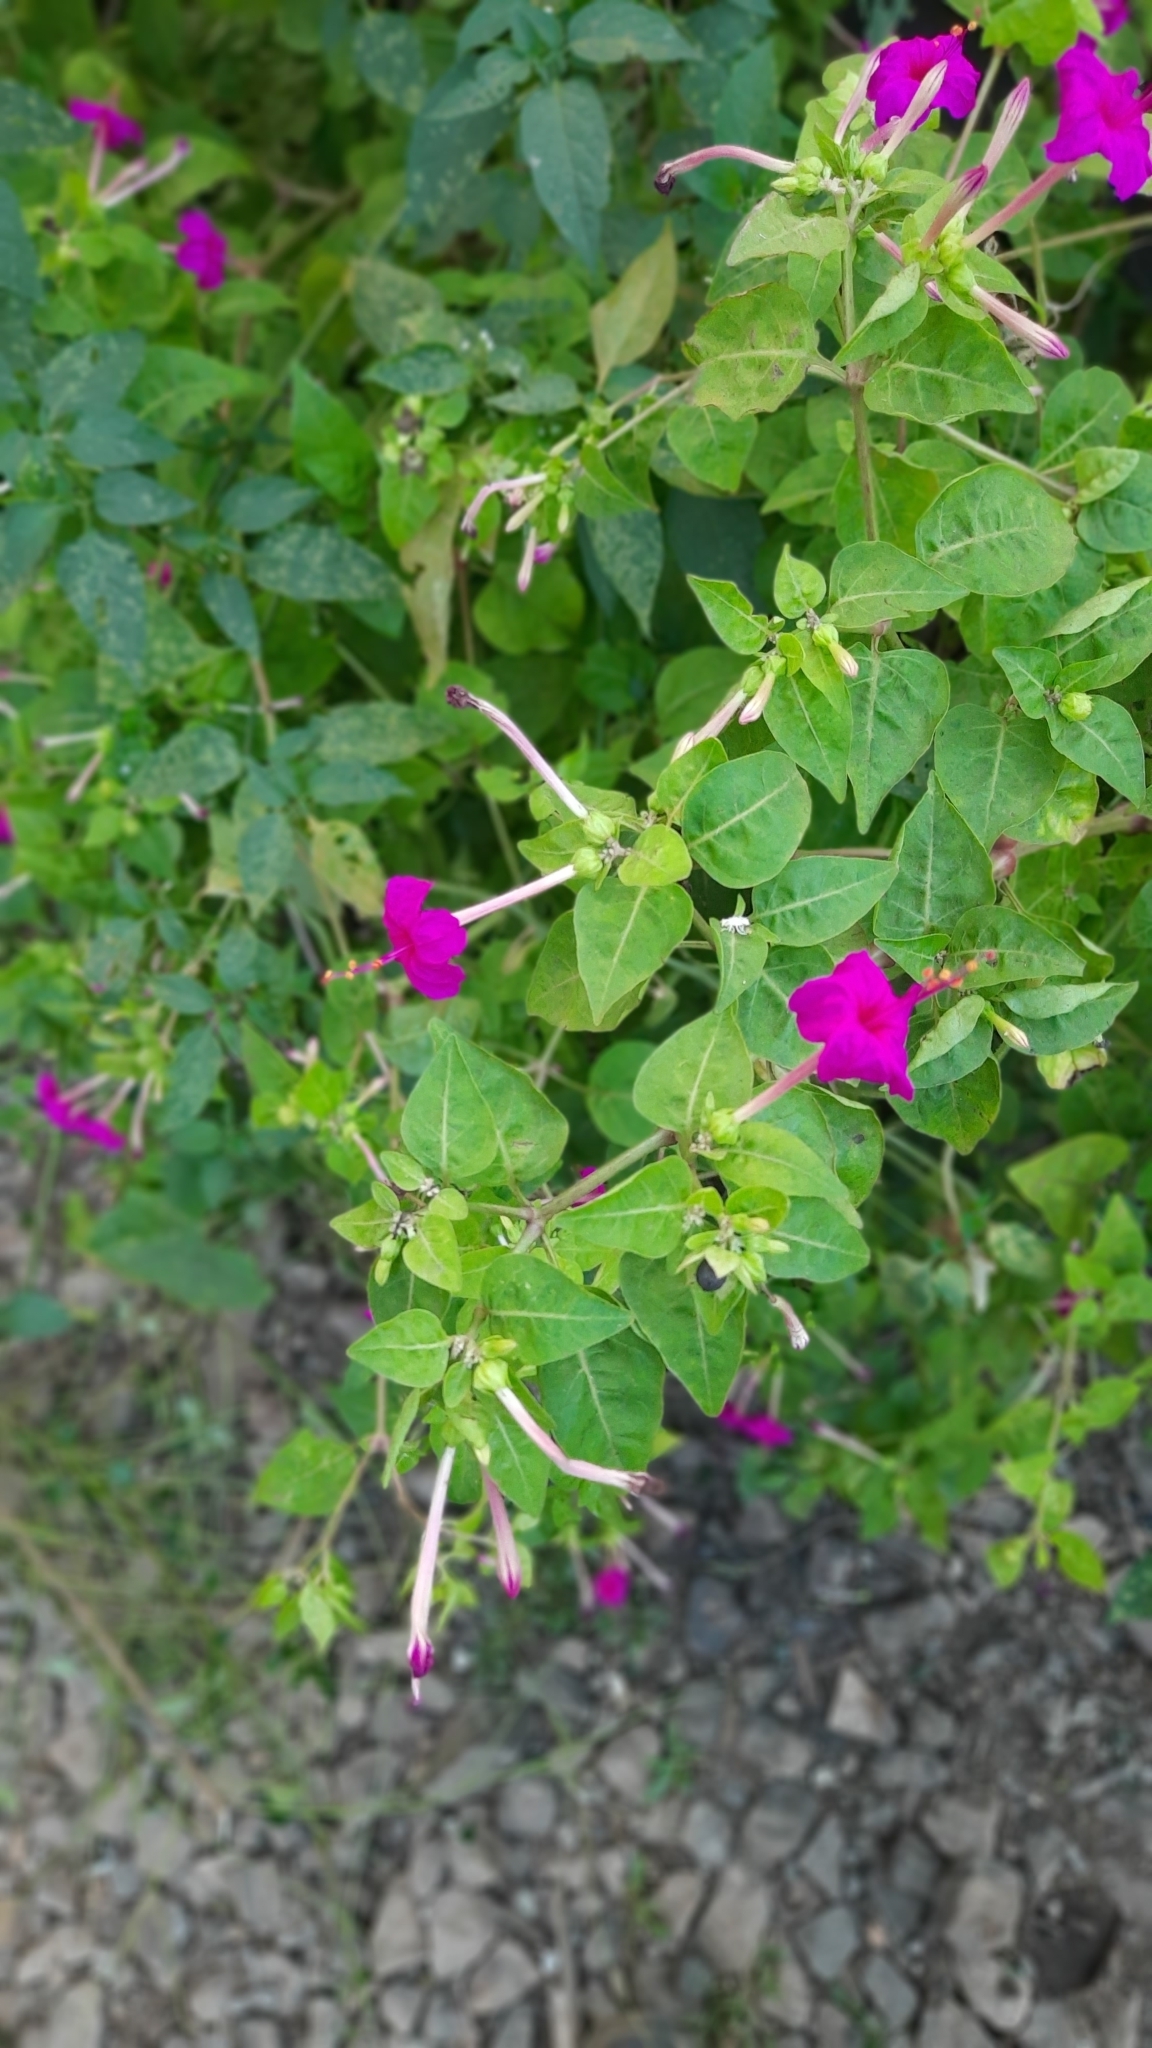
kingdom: Plantae
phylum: Tracheophyta
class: Magnoliopsida
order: Caryophyllales
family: Nyctaginaceae
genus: Mirabilis
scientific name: Mirabilis jalapa
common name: Marvel-of-peru
